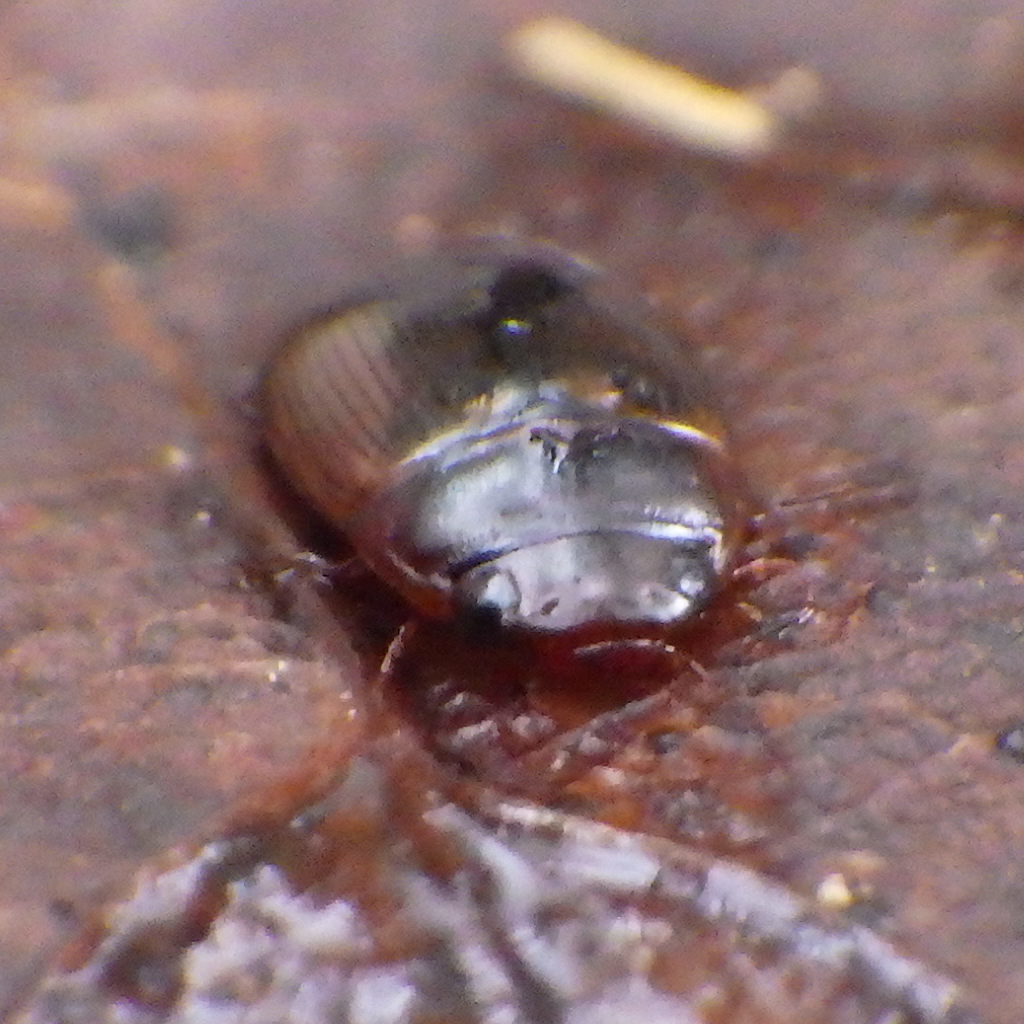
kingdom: Animalia
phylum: Arthropoda
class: Insecta
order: Coleoptera
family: Dytiscidae
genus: Copelatus
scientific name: Copelatus glyphicus
